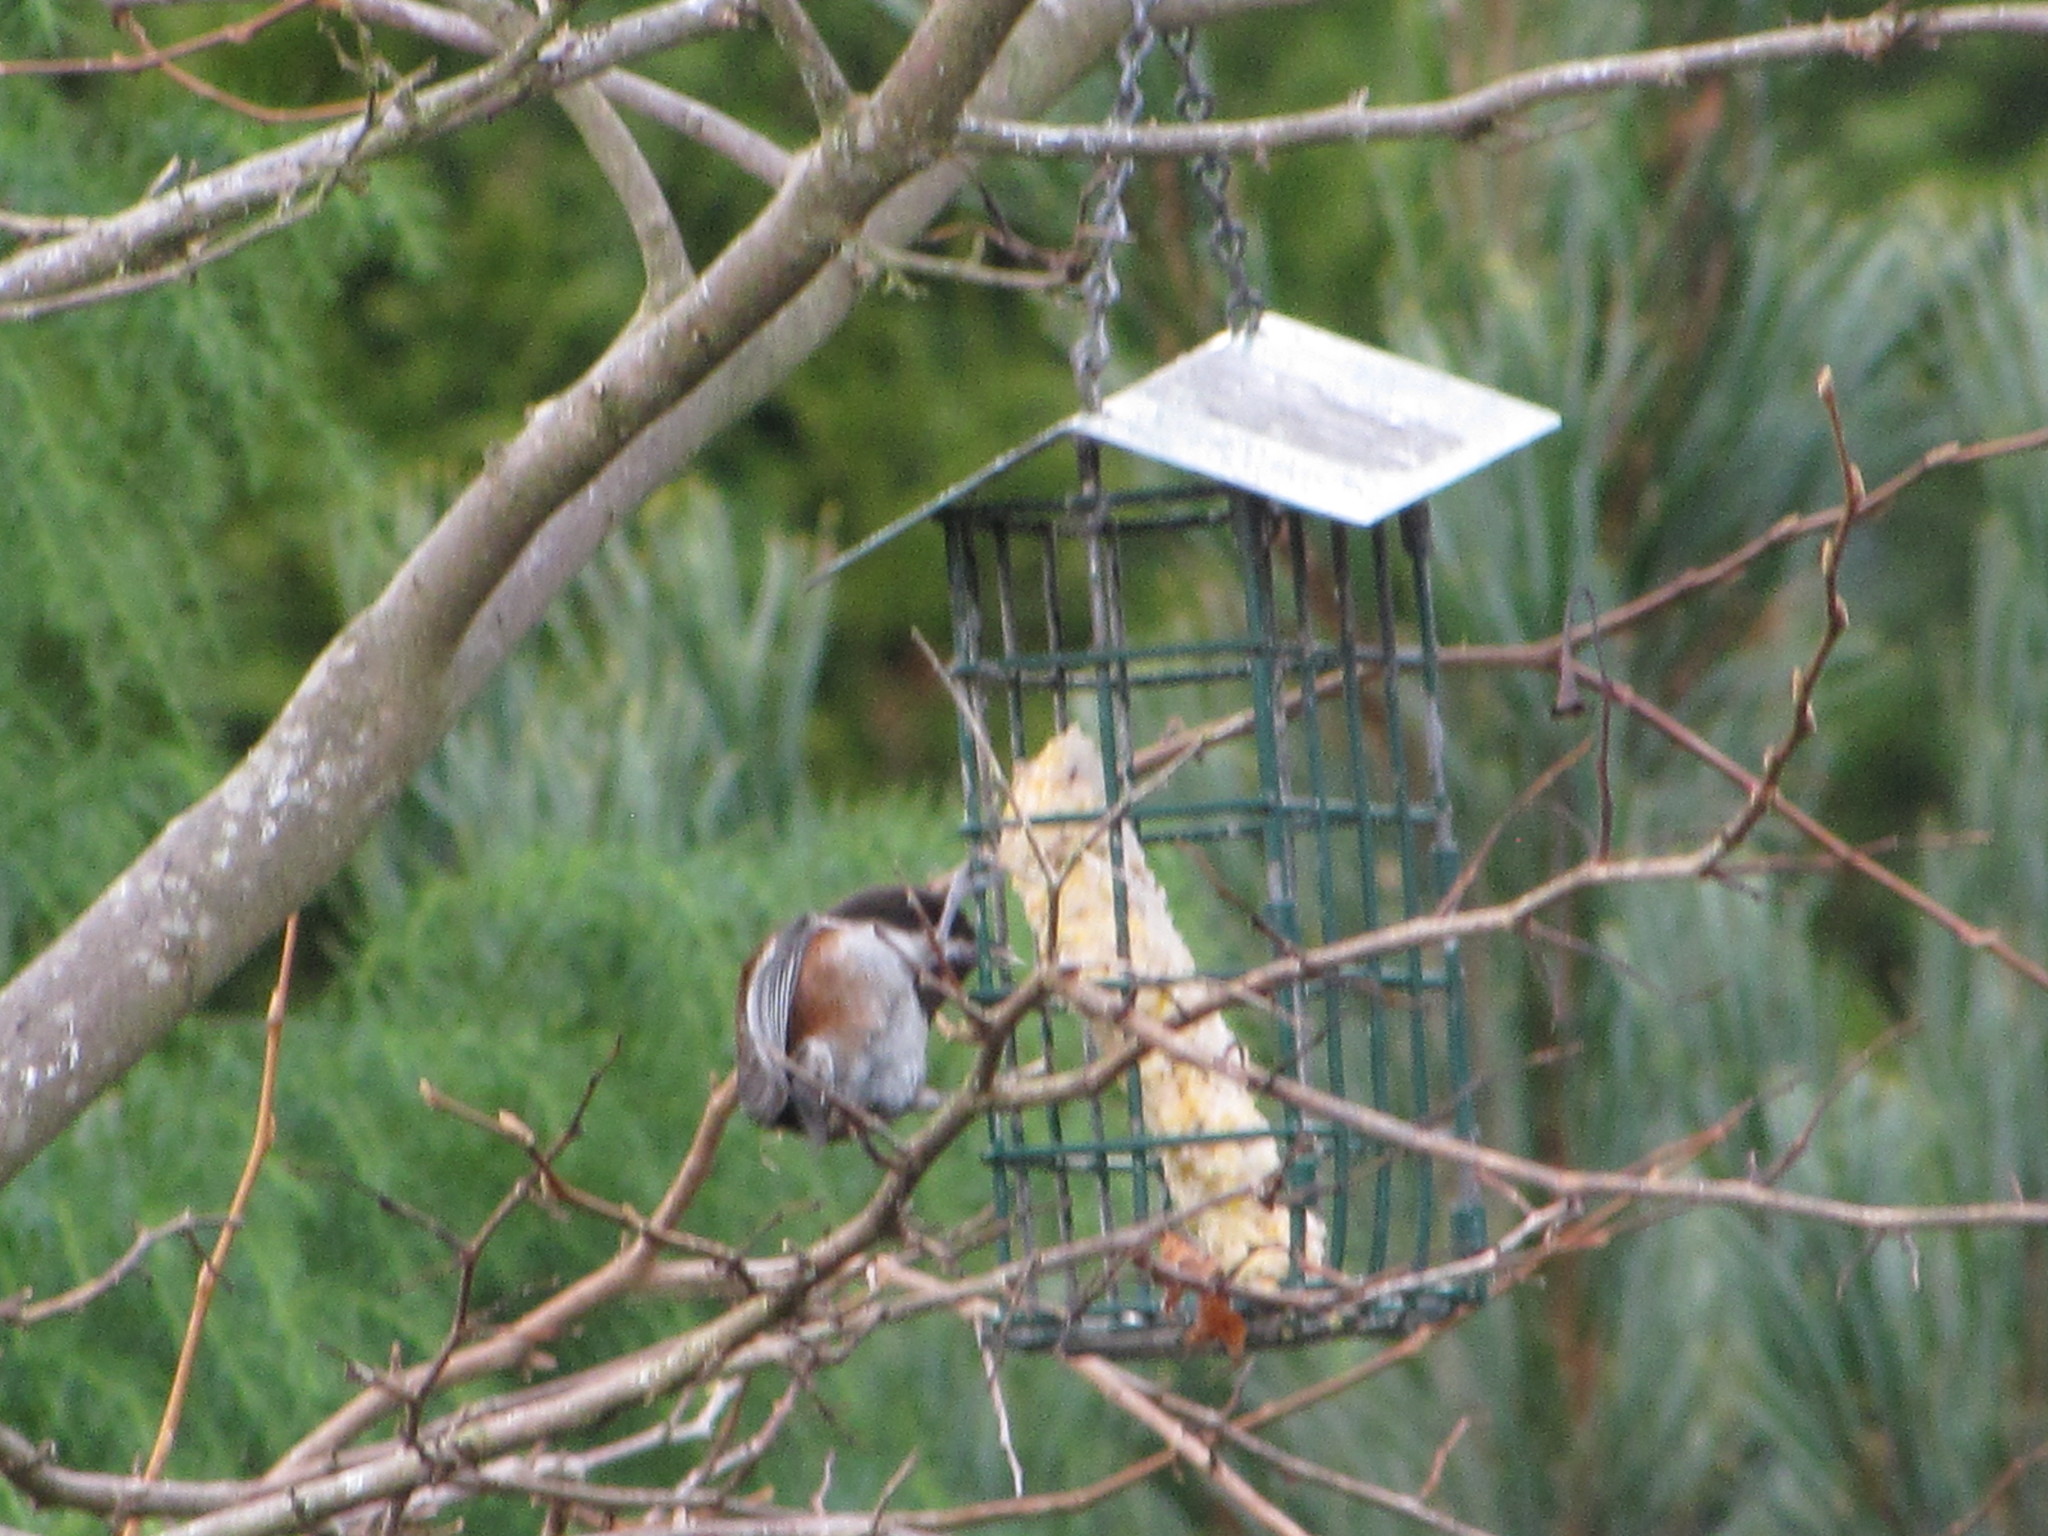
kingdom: Animalia
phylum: Chordata
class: Aves
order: Passeriformes
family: Paridae
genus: Poecile
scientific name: Poecile rufescens
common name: Chestnut-backed chickadee
